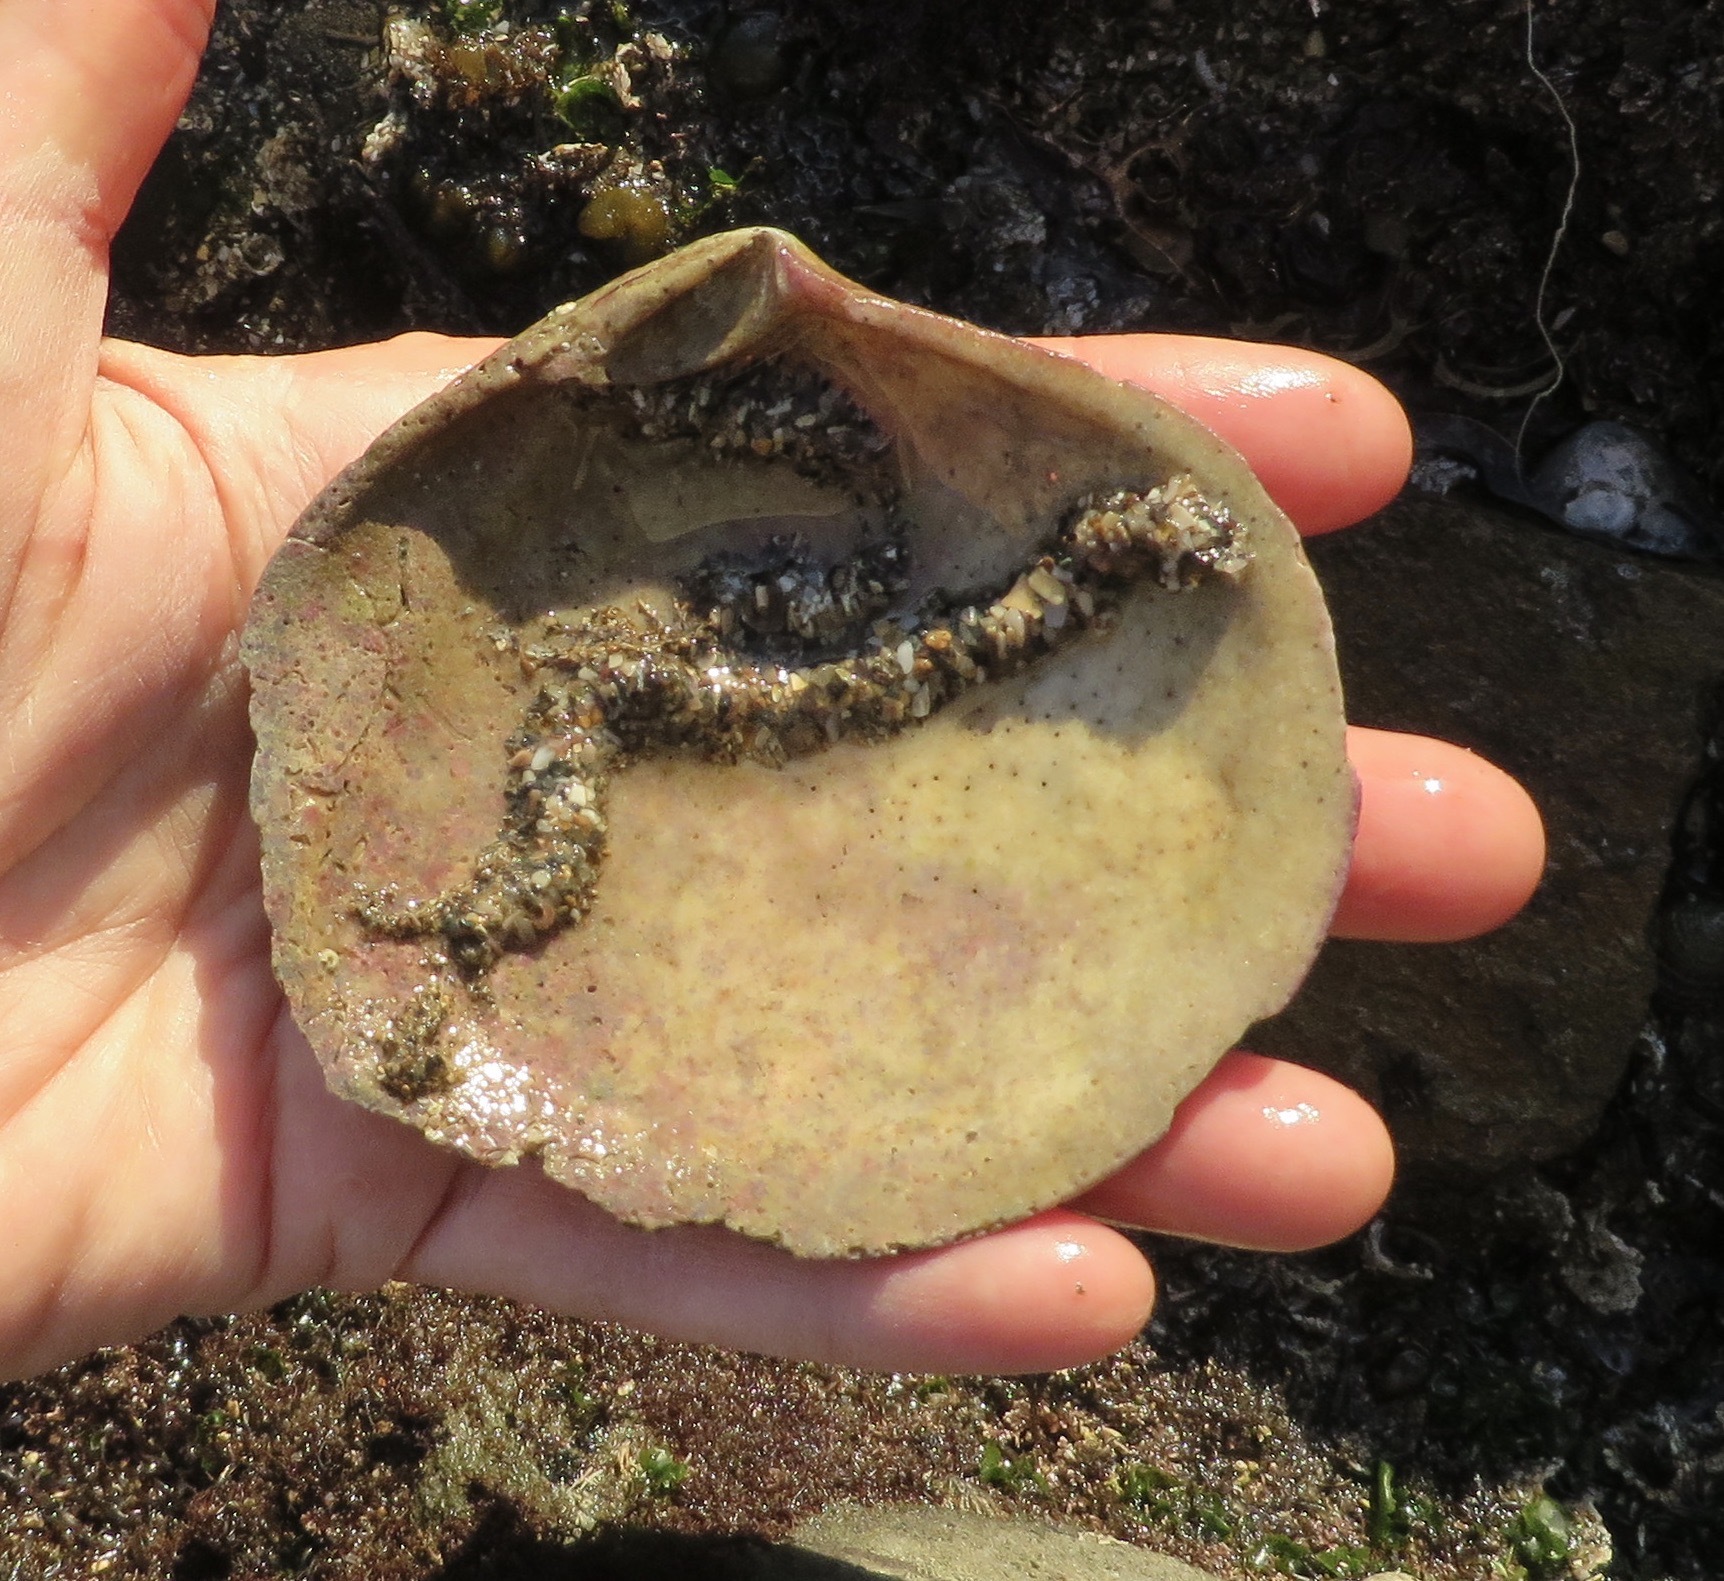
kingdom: Animalia
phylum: Mollusca
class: Bivalvia
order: Cardiida
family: Semelidae
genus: Semele
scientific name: Semele decisa
